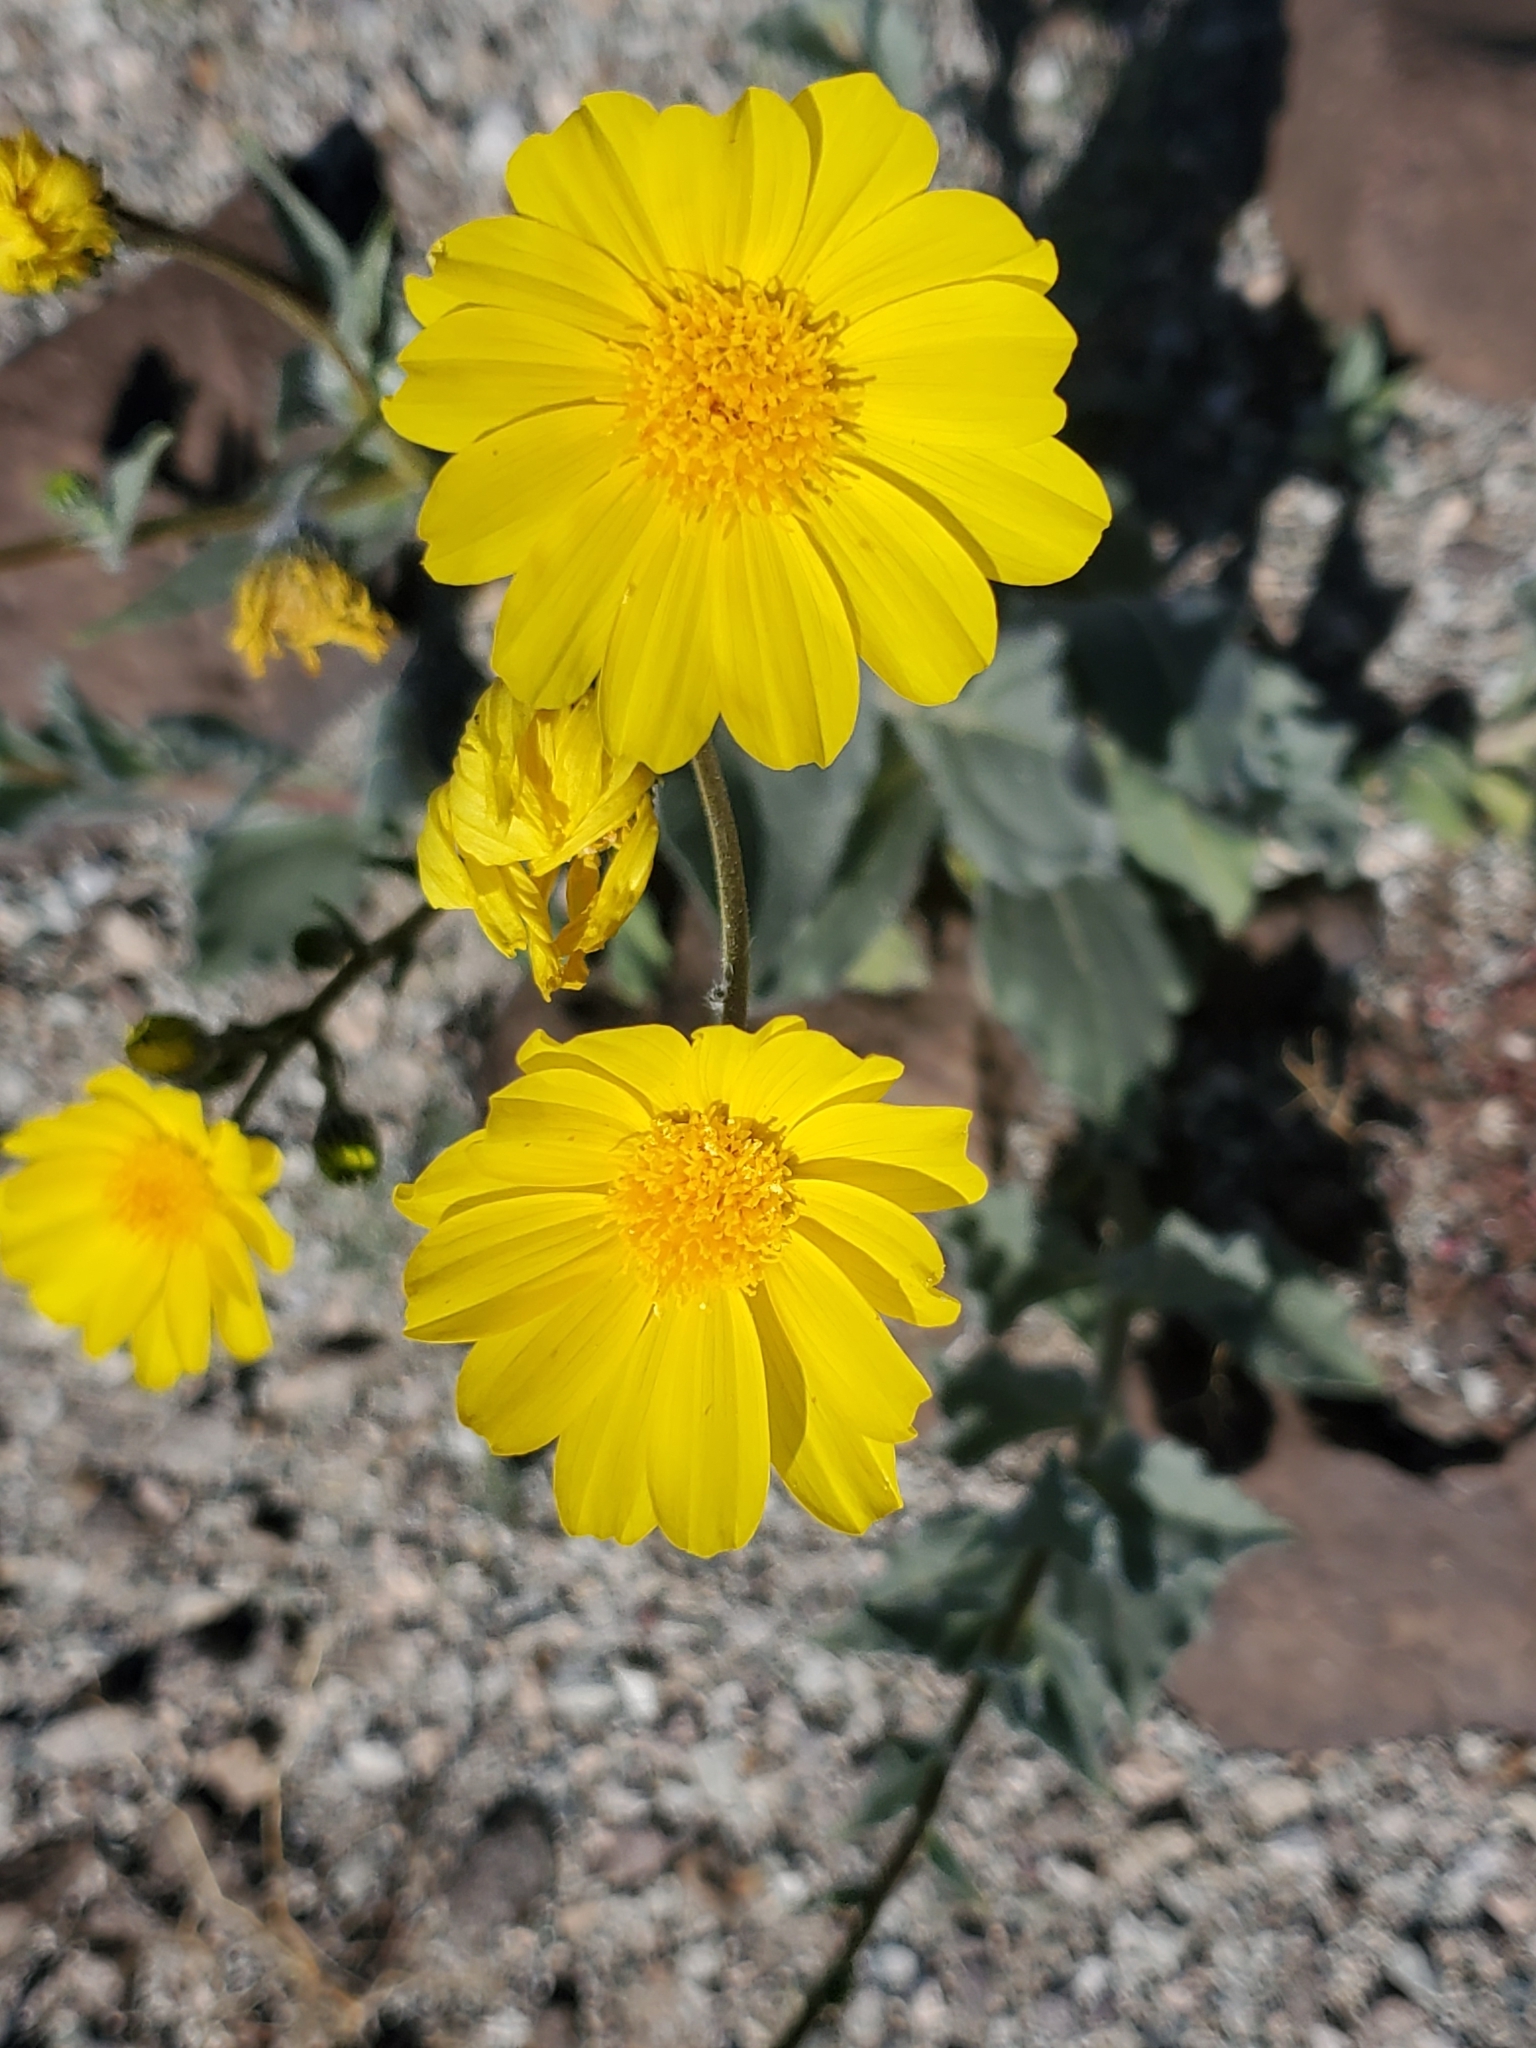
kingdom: Plantae
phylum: Tracheophyta
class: Magnoliopsida
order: Asterales
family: Asteraceae
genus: Geraea
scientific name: Geraea canescens
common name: Desert-gold
